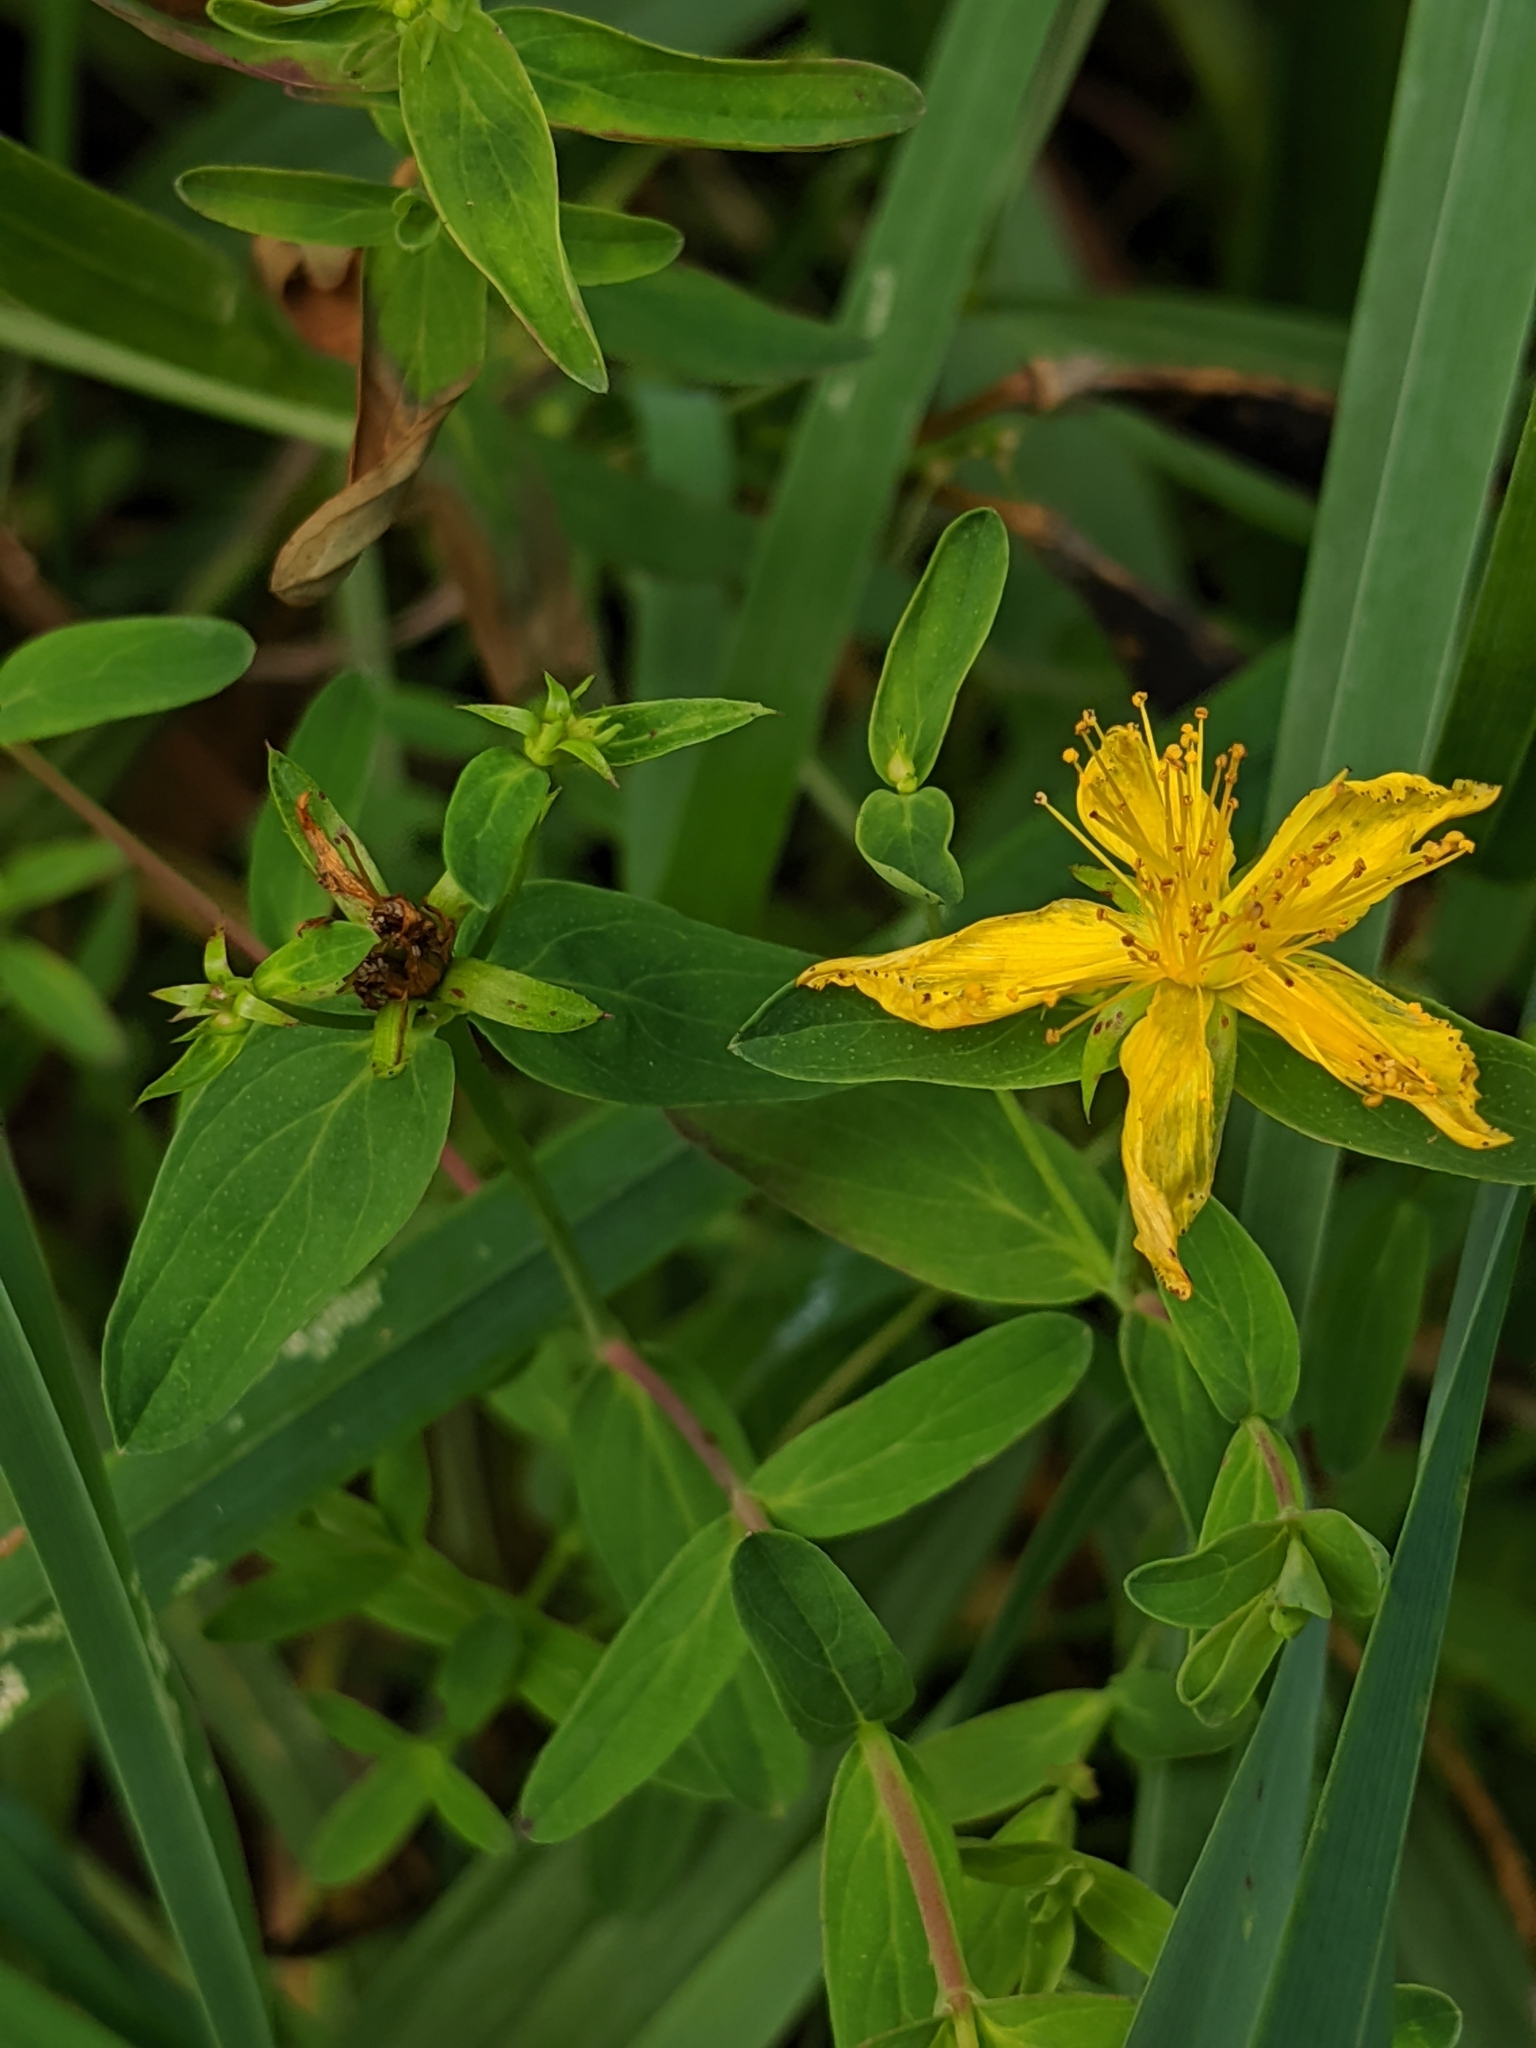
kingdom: Plantae
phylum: Tracheophyta
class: Magnoliopsida
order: Malpighiales
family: Hypericaceae
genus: Hypericum
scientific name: Hypericum perforatum
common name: Common st. johnswort
